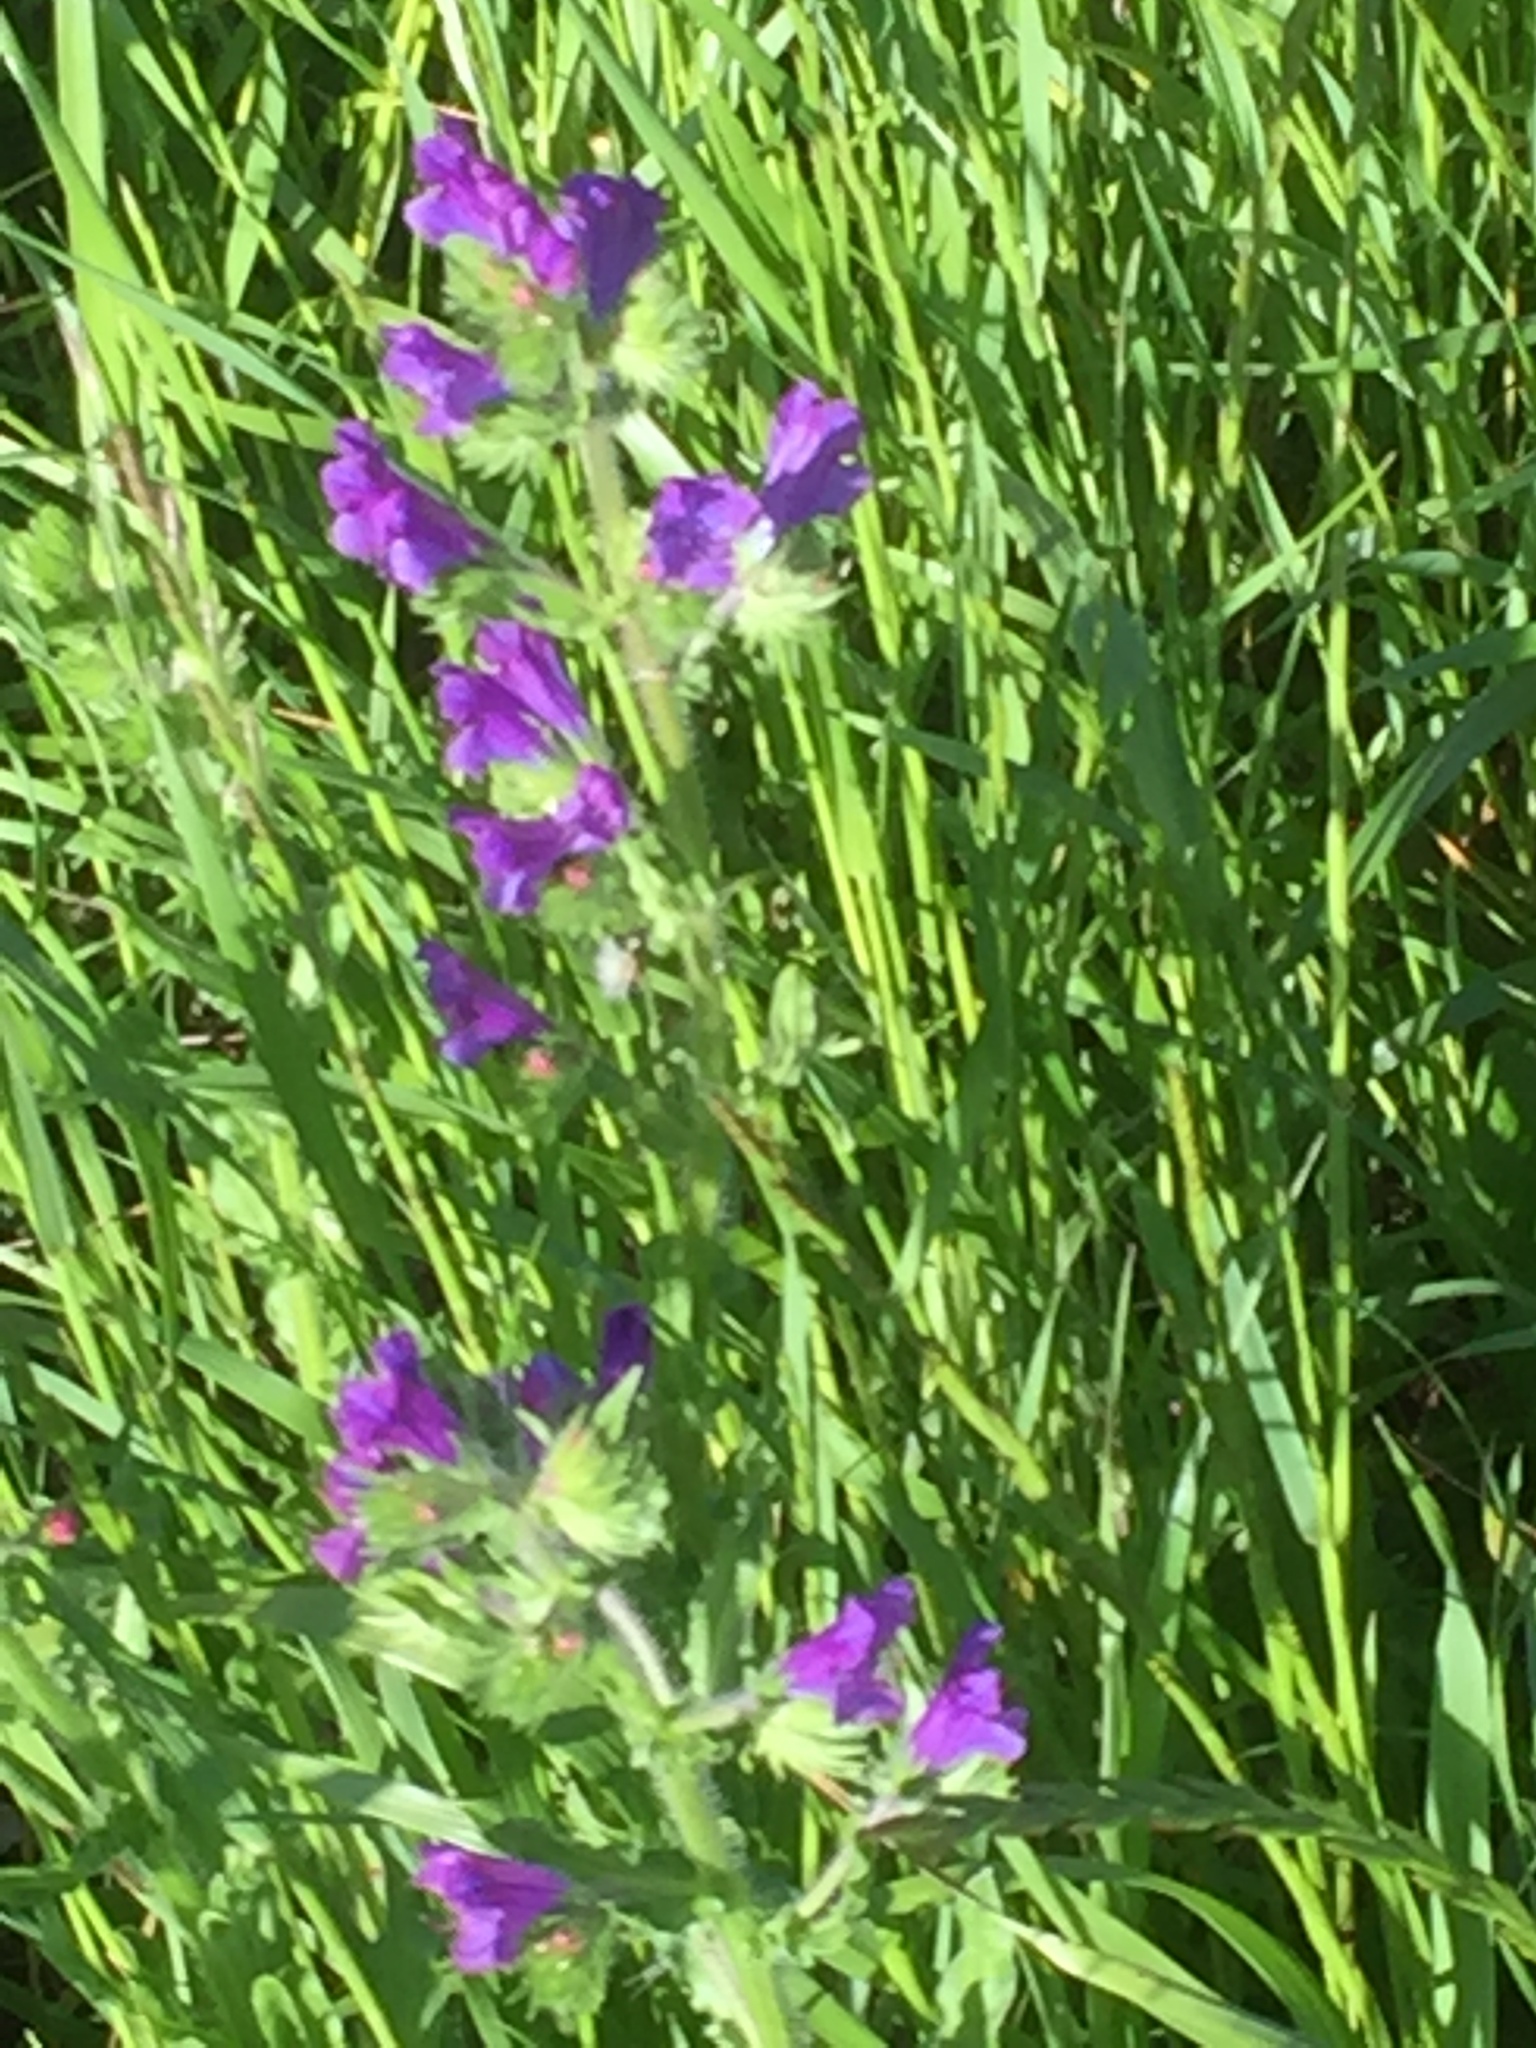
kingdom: Plantae
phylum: Tracheophyta
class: Magnoliopsida
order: Boraginales
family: Boraginaceae
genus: Echium
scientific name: Echium plantagineum
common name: Purple viper's-bugloss
